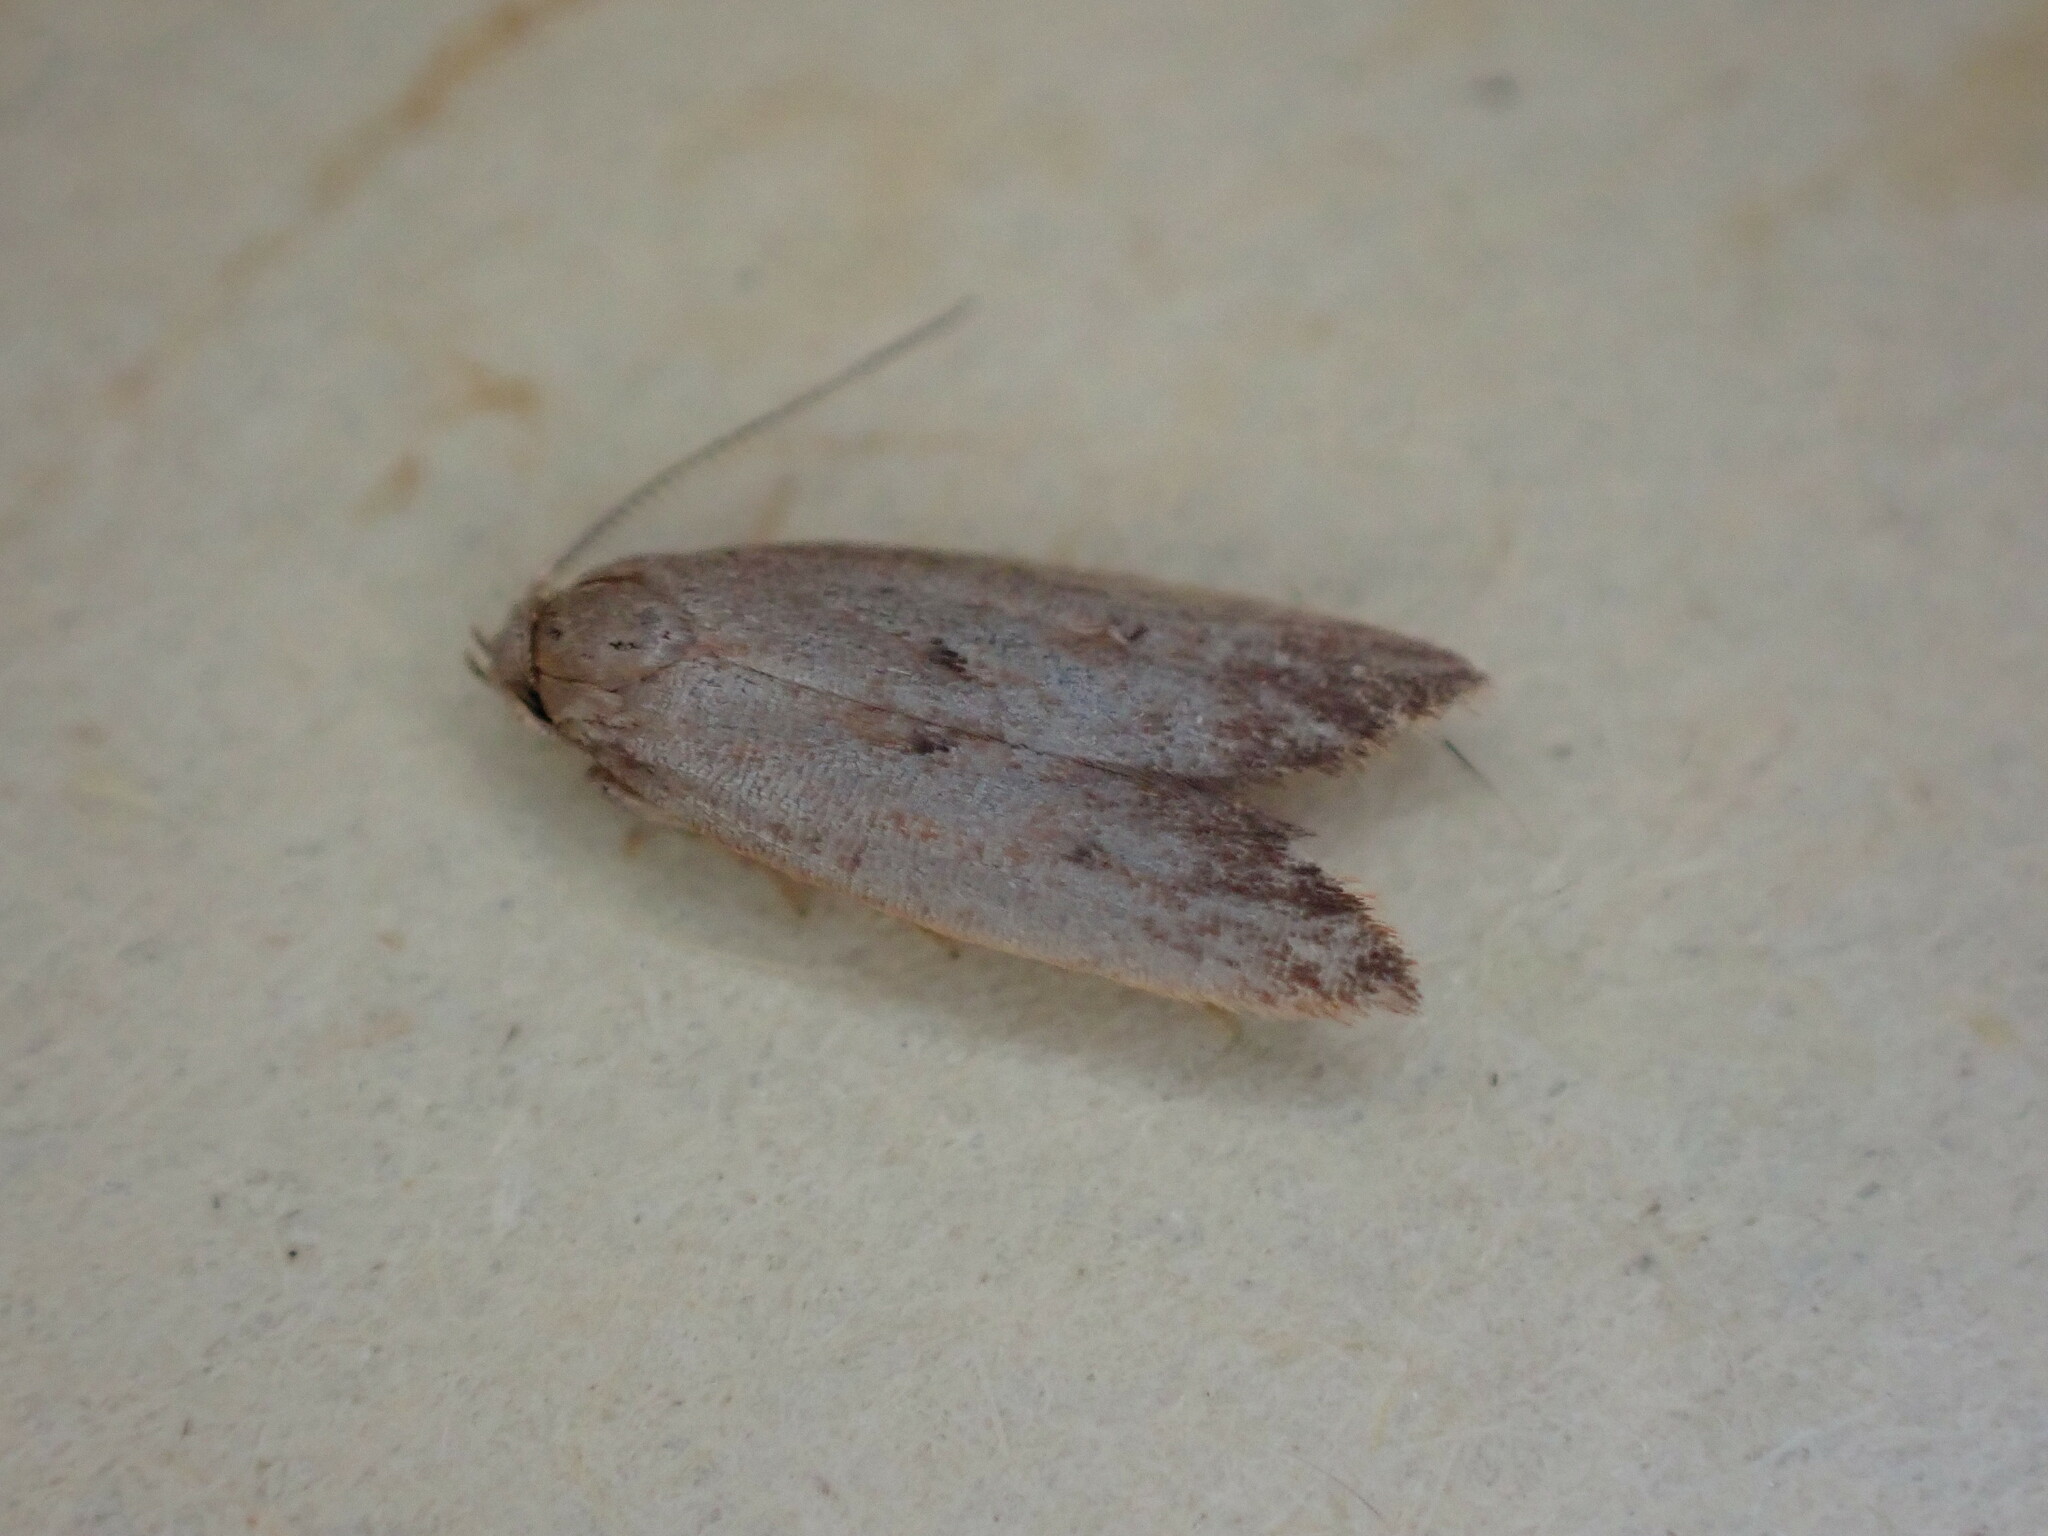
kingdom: Animalia
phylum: Arthropoda
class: Insecta
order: Lepidoptera
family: Oecophoridae
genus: Tachystola
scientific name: Tachystola acroxantha
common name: Ruddy streak
